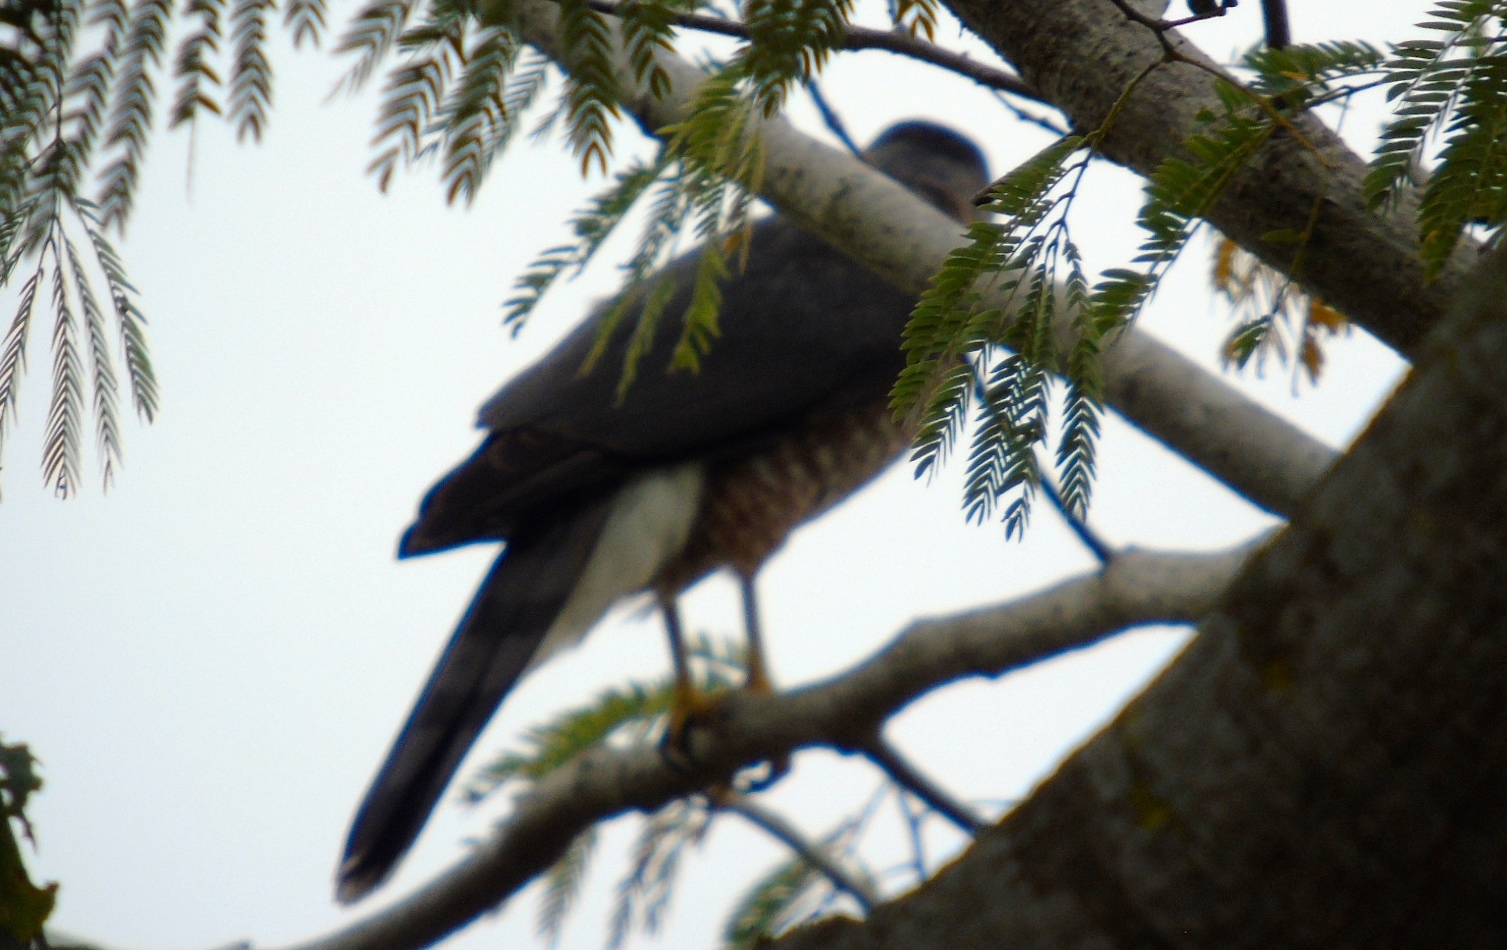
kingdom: Animalia
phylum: Chordata
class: Aves
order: Accipitriformes
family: Accipitridae
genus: Accipiter
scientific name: Accipiter cooperii
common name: Cooper's hawk
